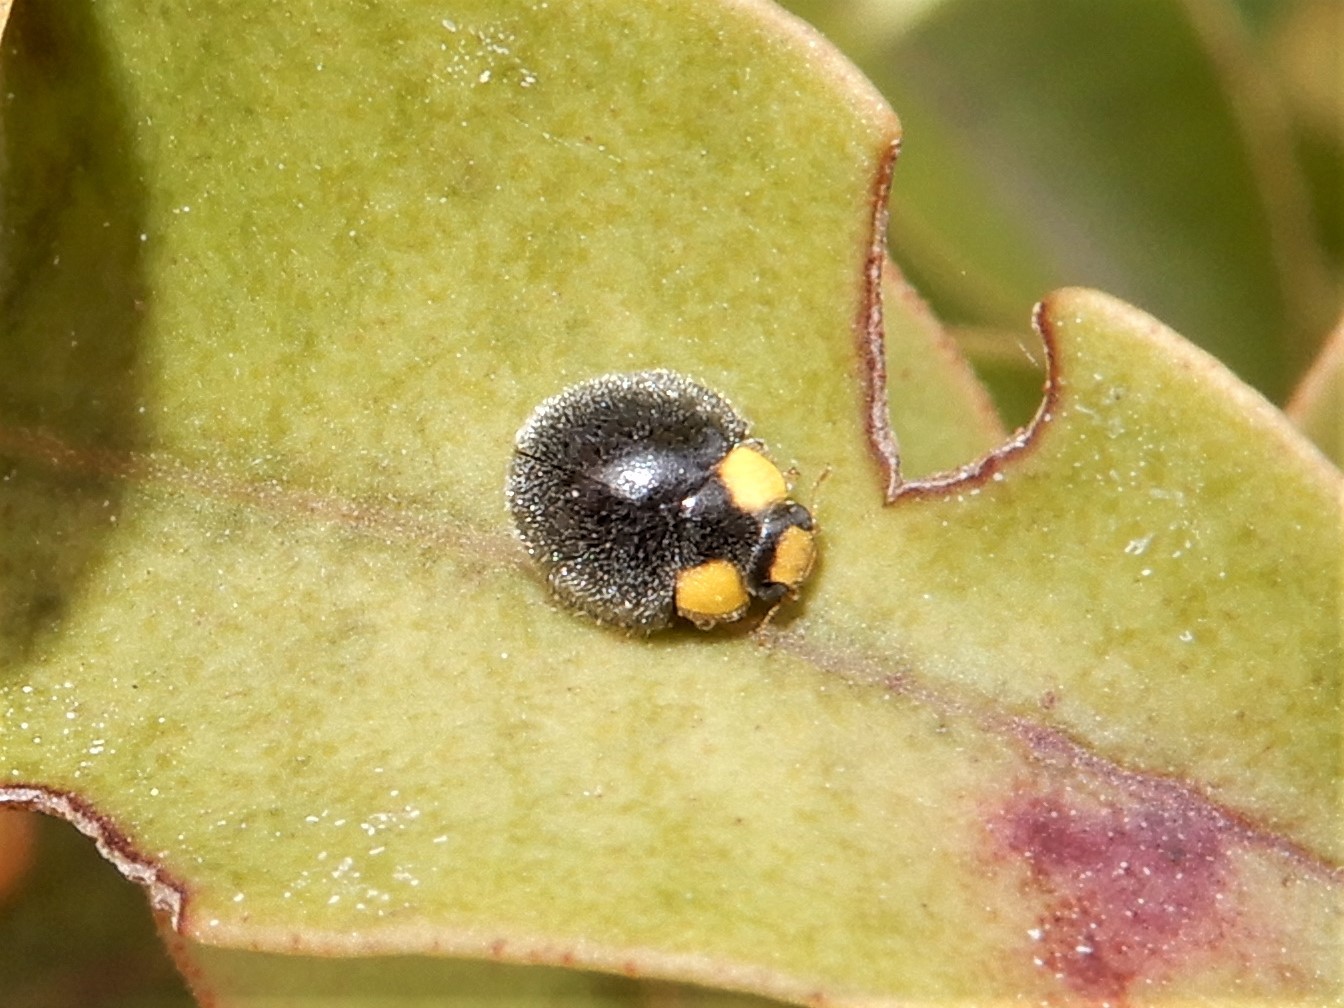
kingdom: Animalia
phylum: Arthropoda
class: Insecta
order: Coleoptera
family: Coccinellidae
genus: Scymnodes
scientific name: Scymnodes lividigaster
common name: Yellowshouldered lady beetle
